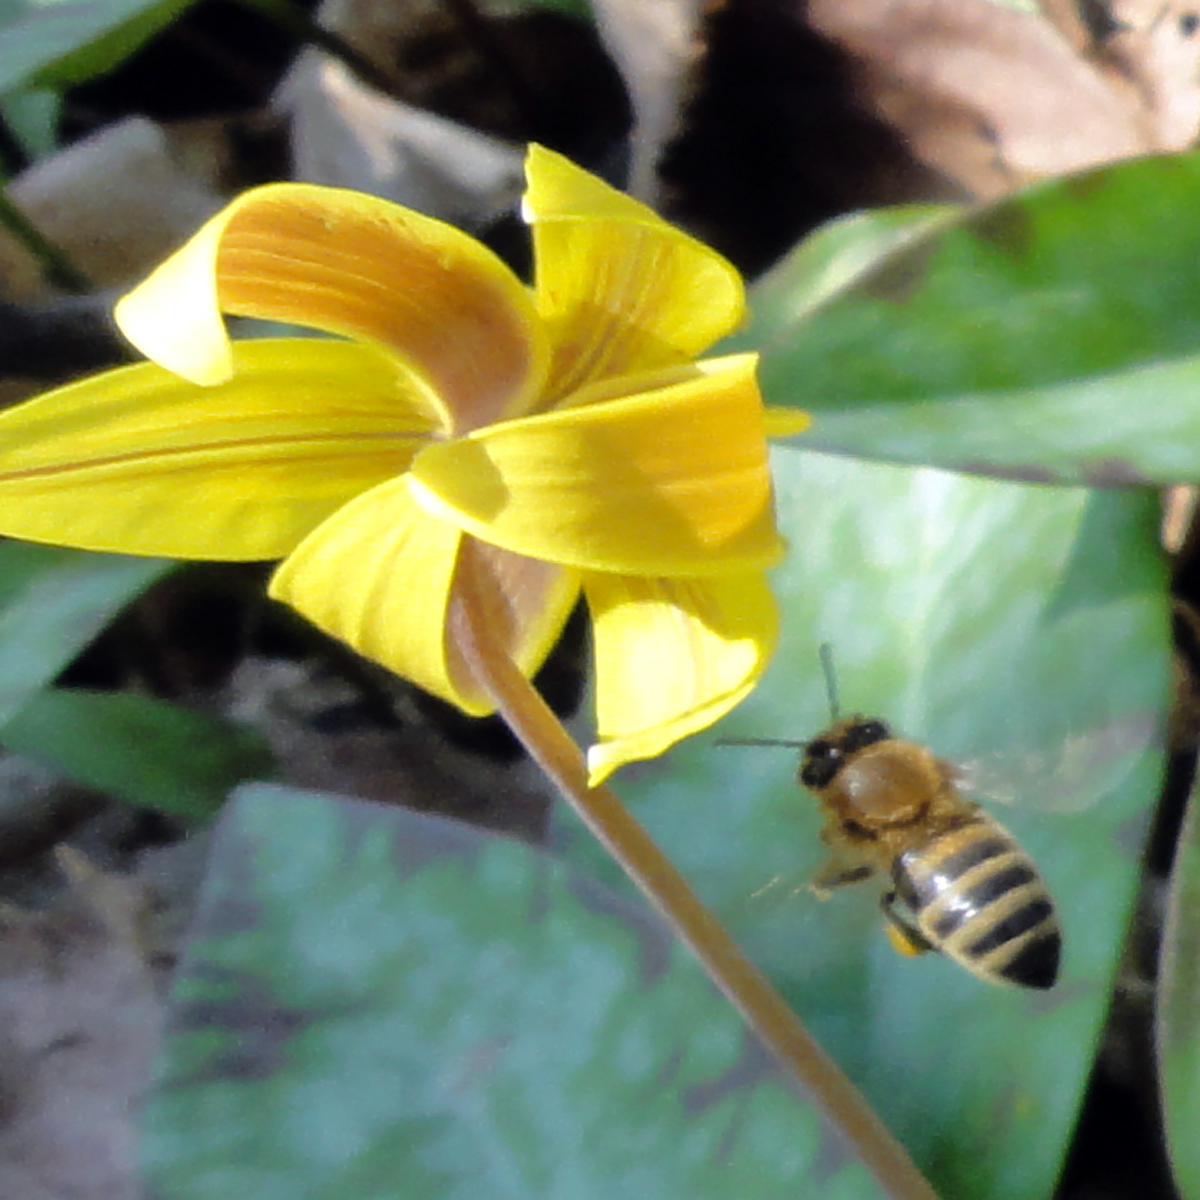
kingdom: Animalia
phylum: Arthropoda
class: Insecta
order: Hymenoptera
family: Apidae
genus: Apis
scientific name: Apis mellifera
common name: Honey bee
